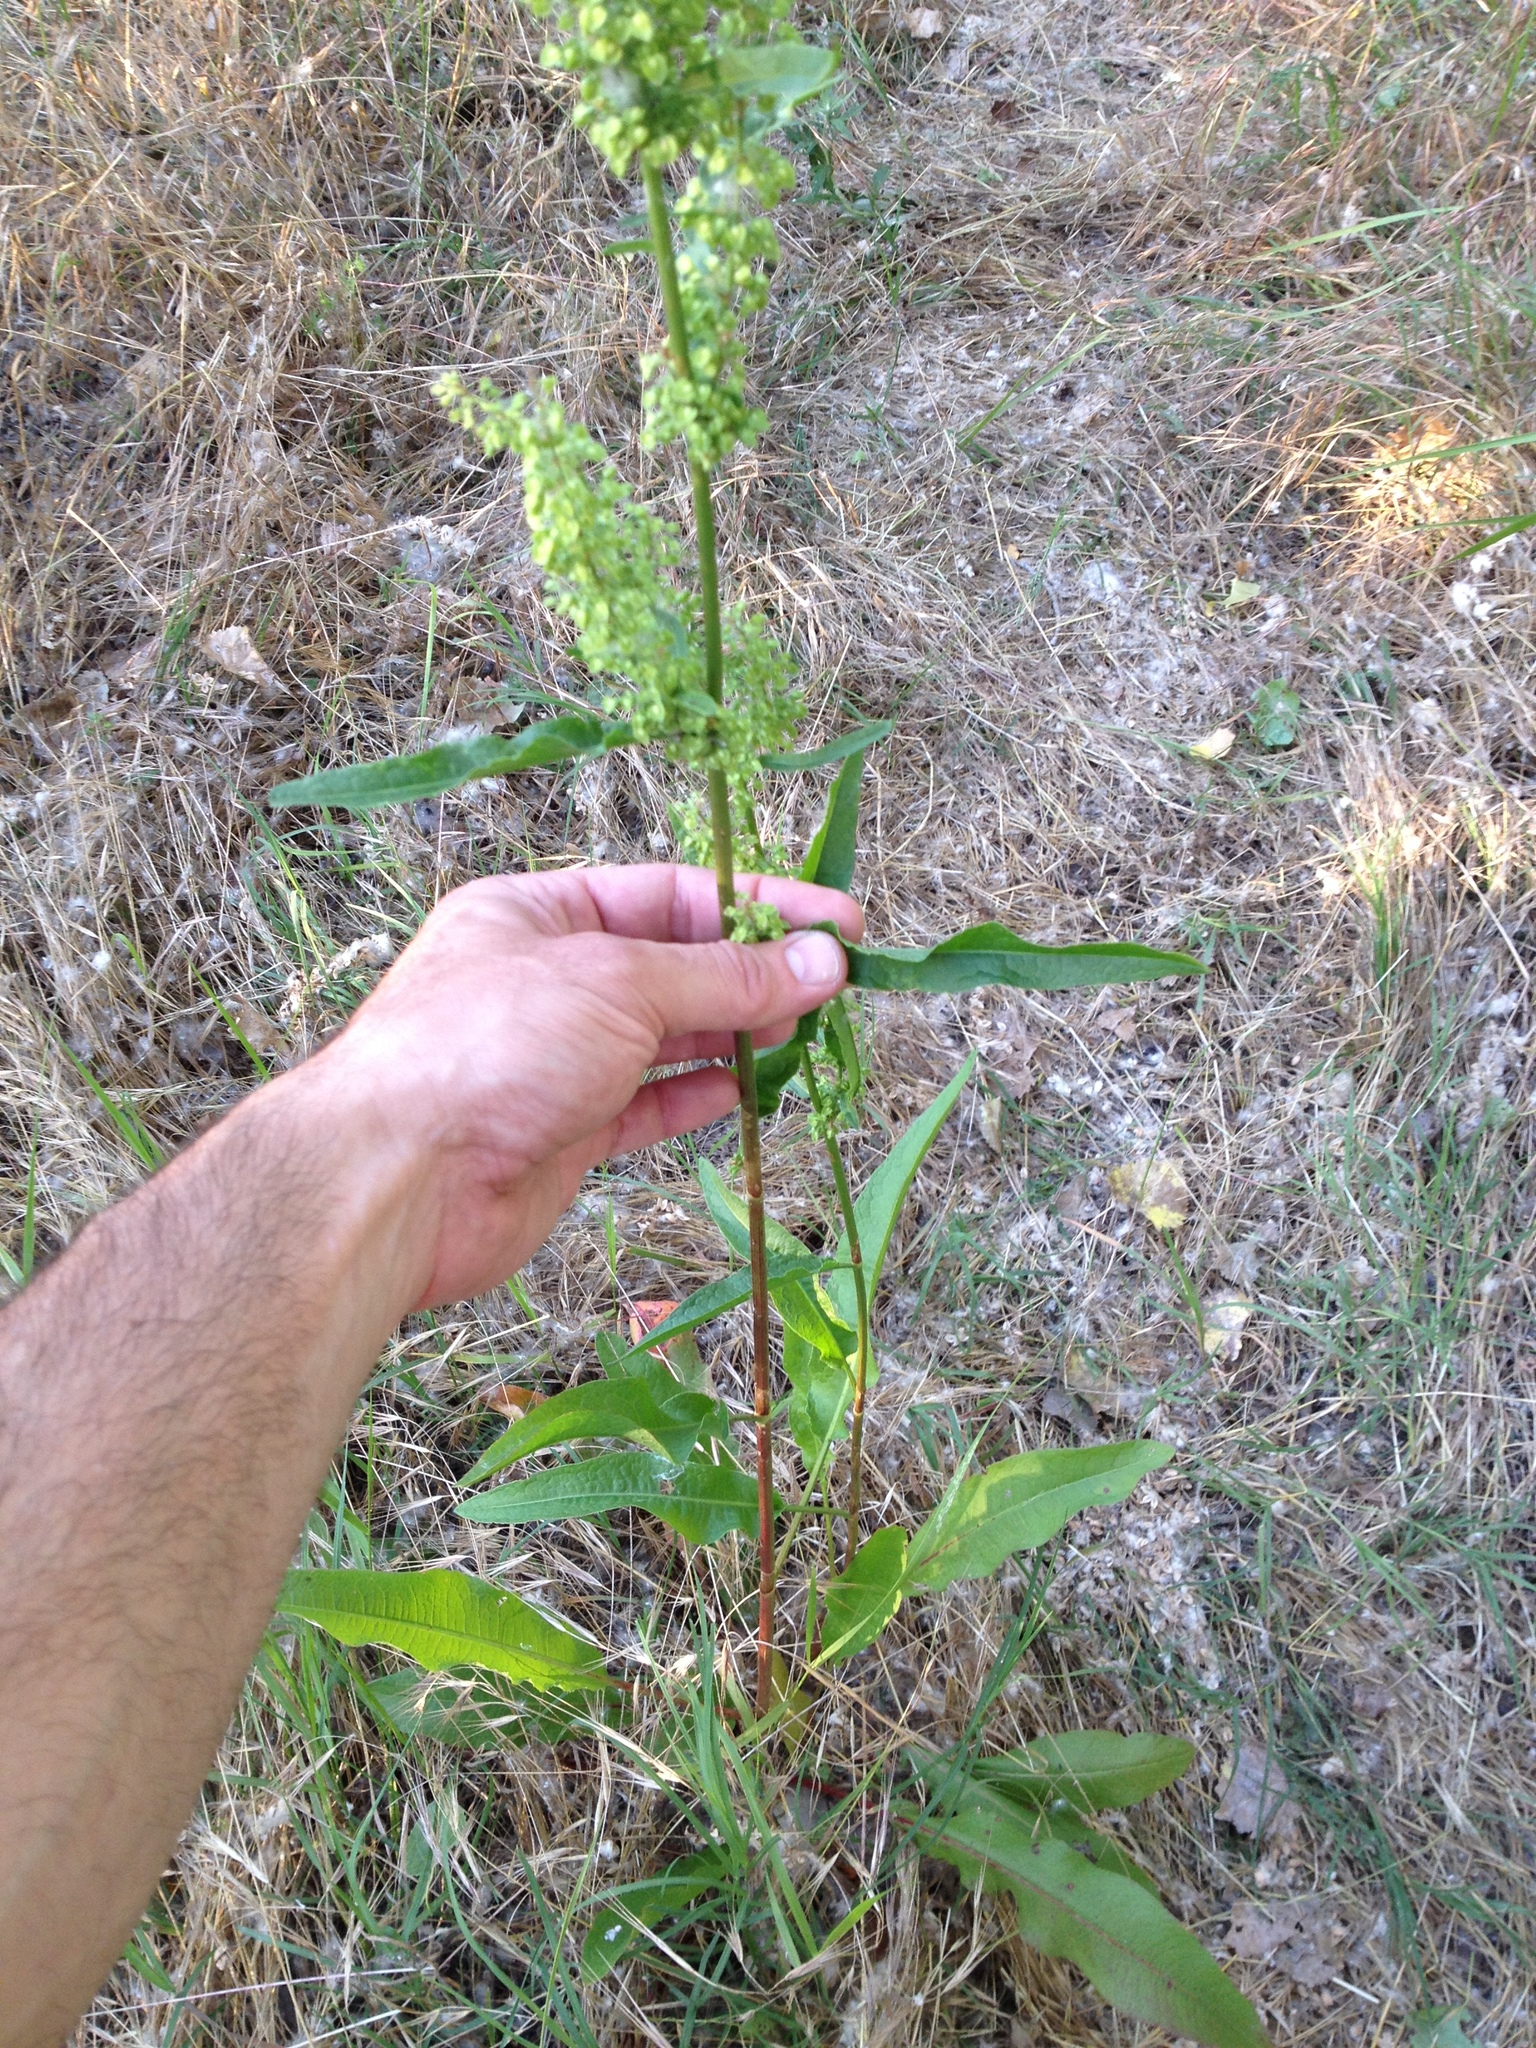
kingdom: Plantae
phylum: Tracheophyta
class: Magnoliopsida
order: Caryophyllales
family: Polygonaceae
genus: Rumex
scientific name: Rumex crispus
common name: Curled dock
